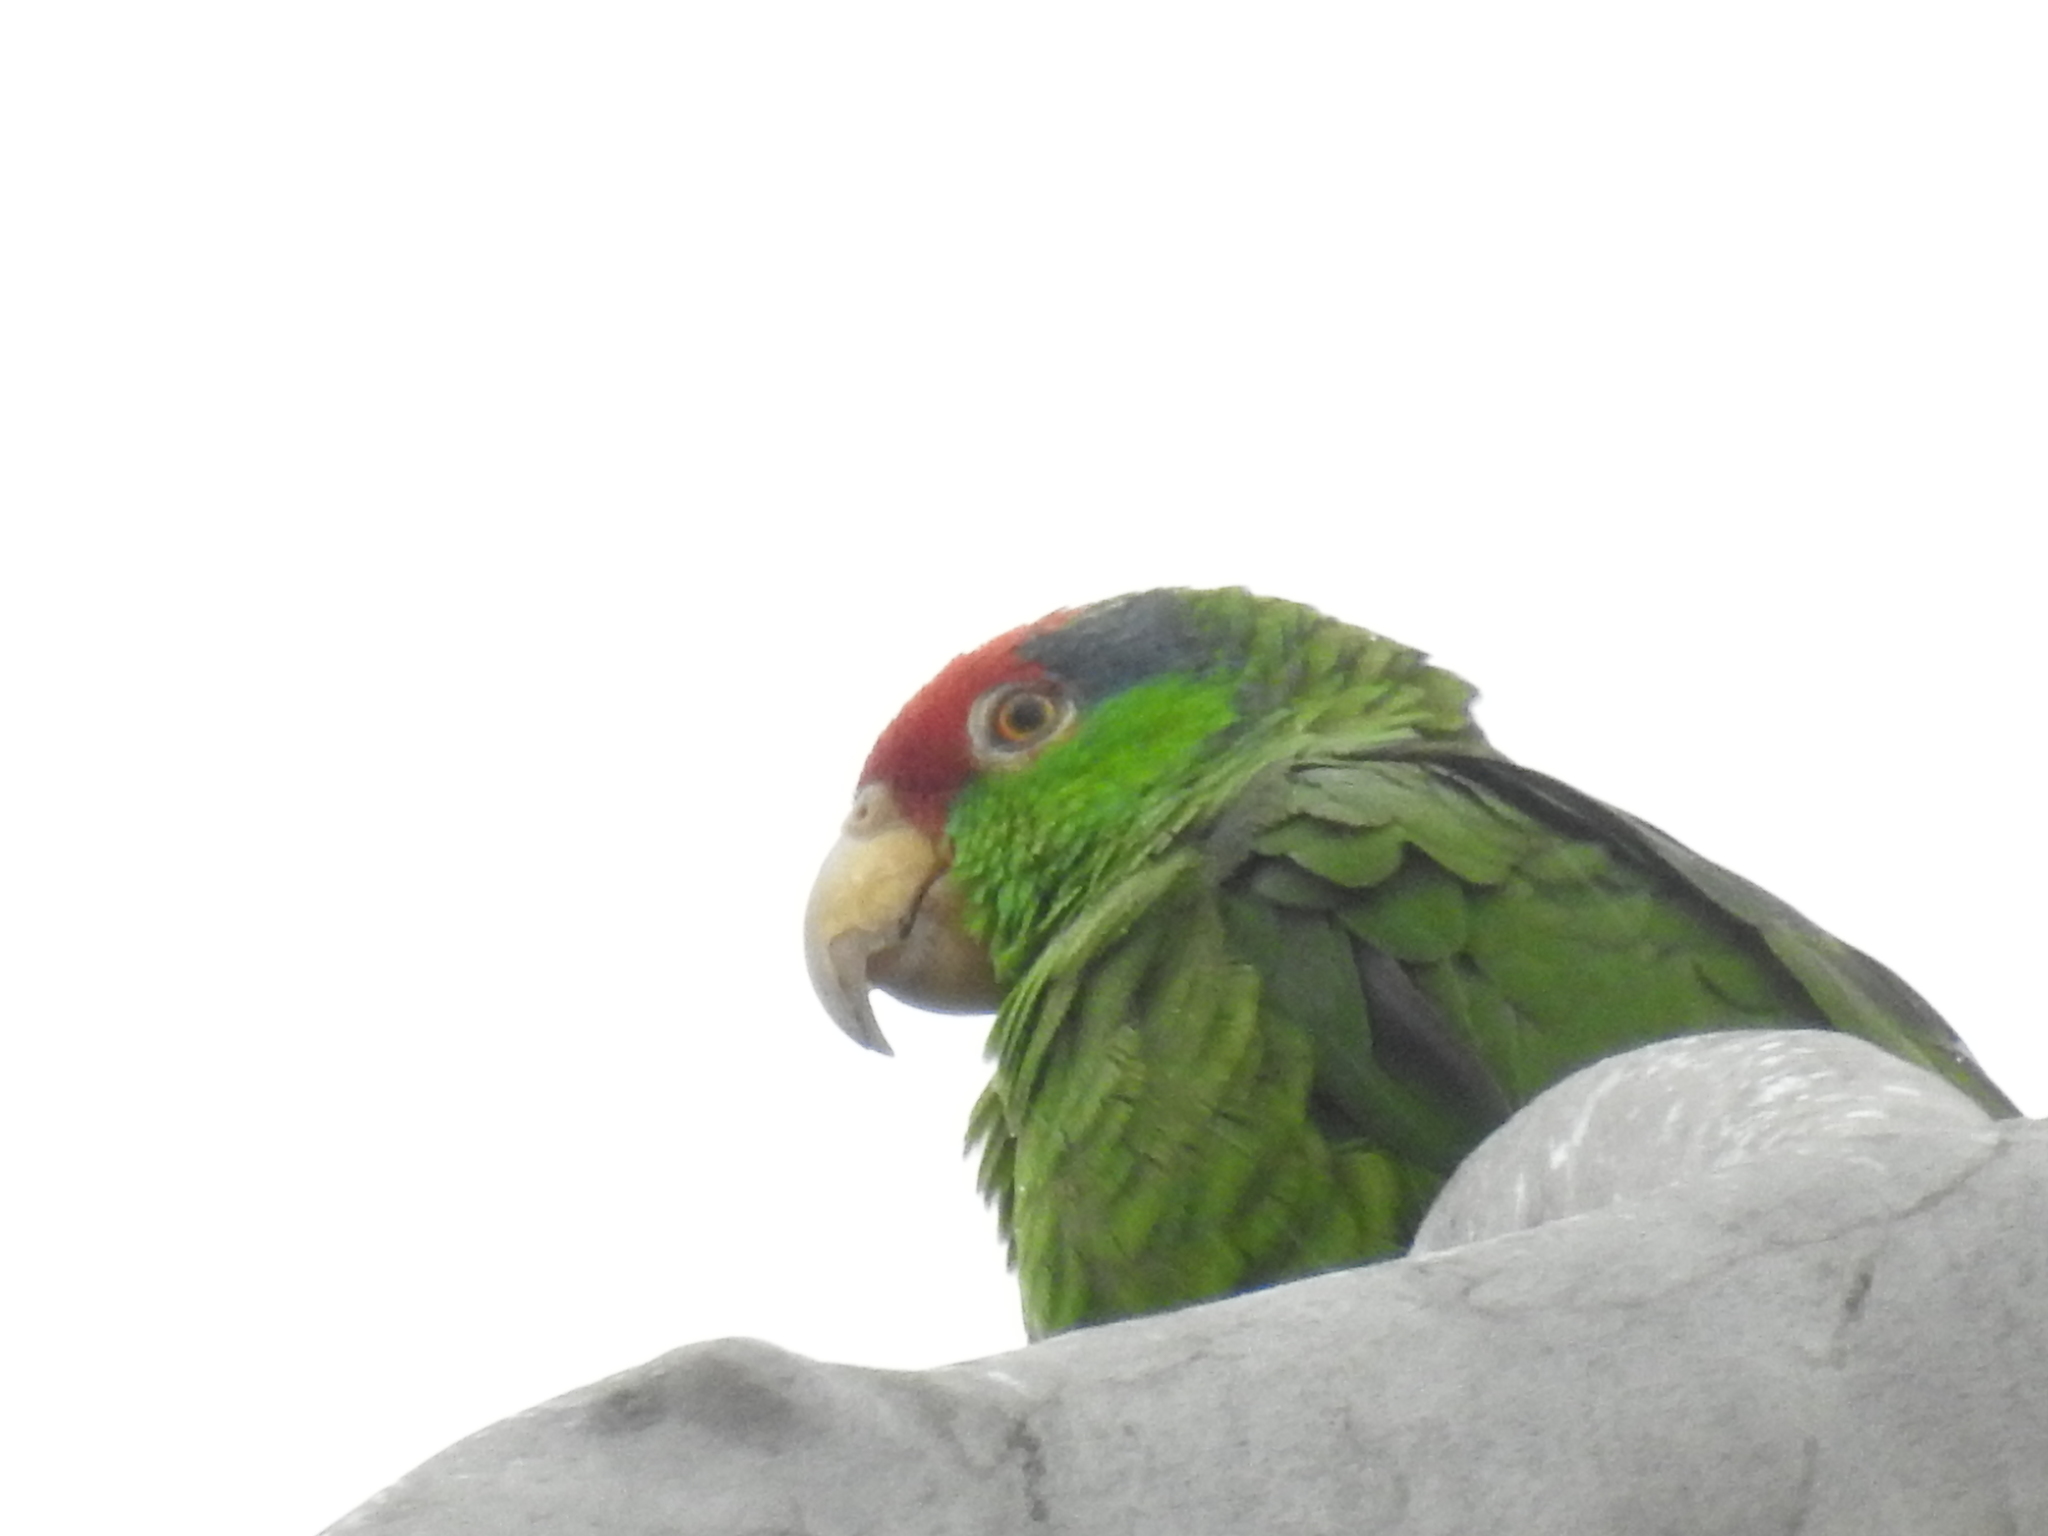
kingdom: Animalia
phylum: Chordata
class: Aves
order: Psittaciformes
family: Psittacidae
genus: Amazona
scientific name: Amazona viridigenalis
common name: Red-crowned amazon
